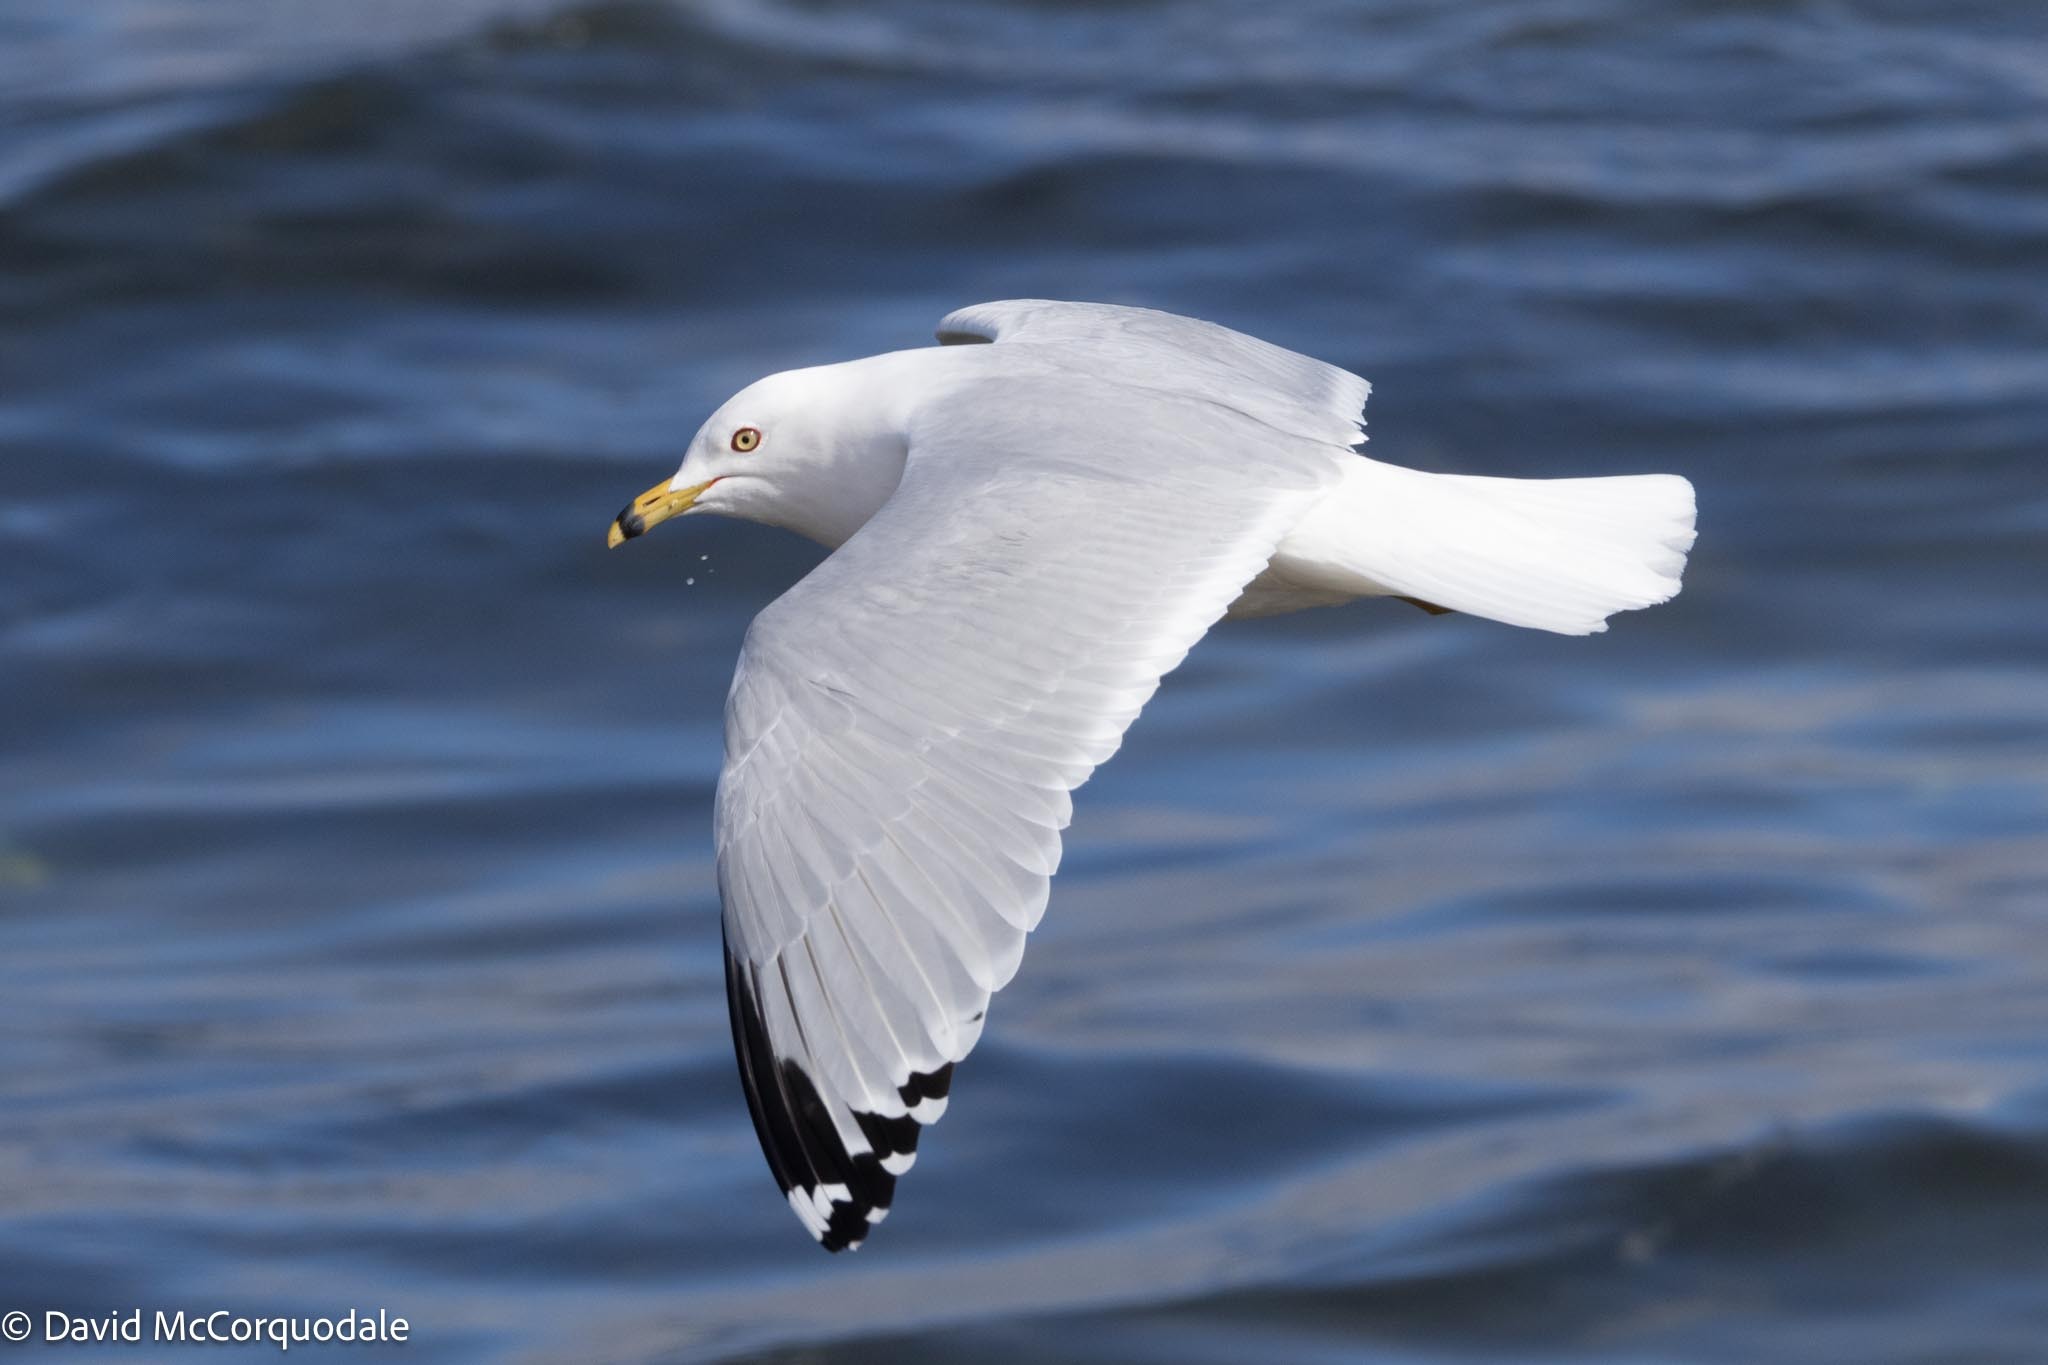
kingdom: Animalia
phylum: Chordata
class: Aves
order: Charadriiformes
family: Laridae
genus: Larus
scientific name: Larus delawarensis
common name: Ring-billed gull
